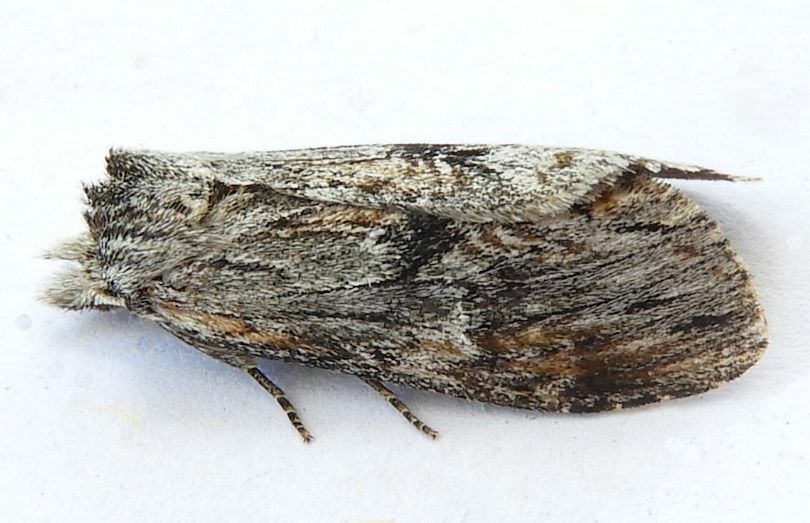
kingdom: Animalia
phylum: Arthropoda
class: Insecta
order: Lepidoptera
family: Notodontidae
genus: Notela
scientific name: Notela jaliscana
